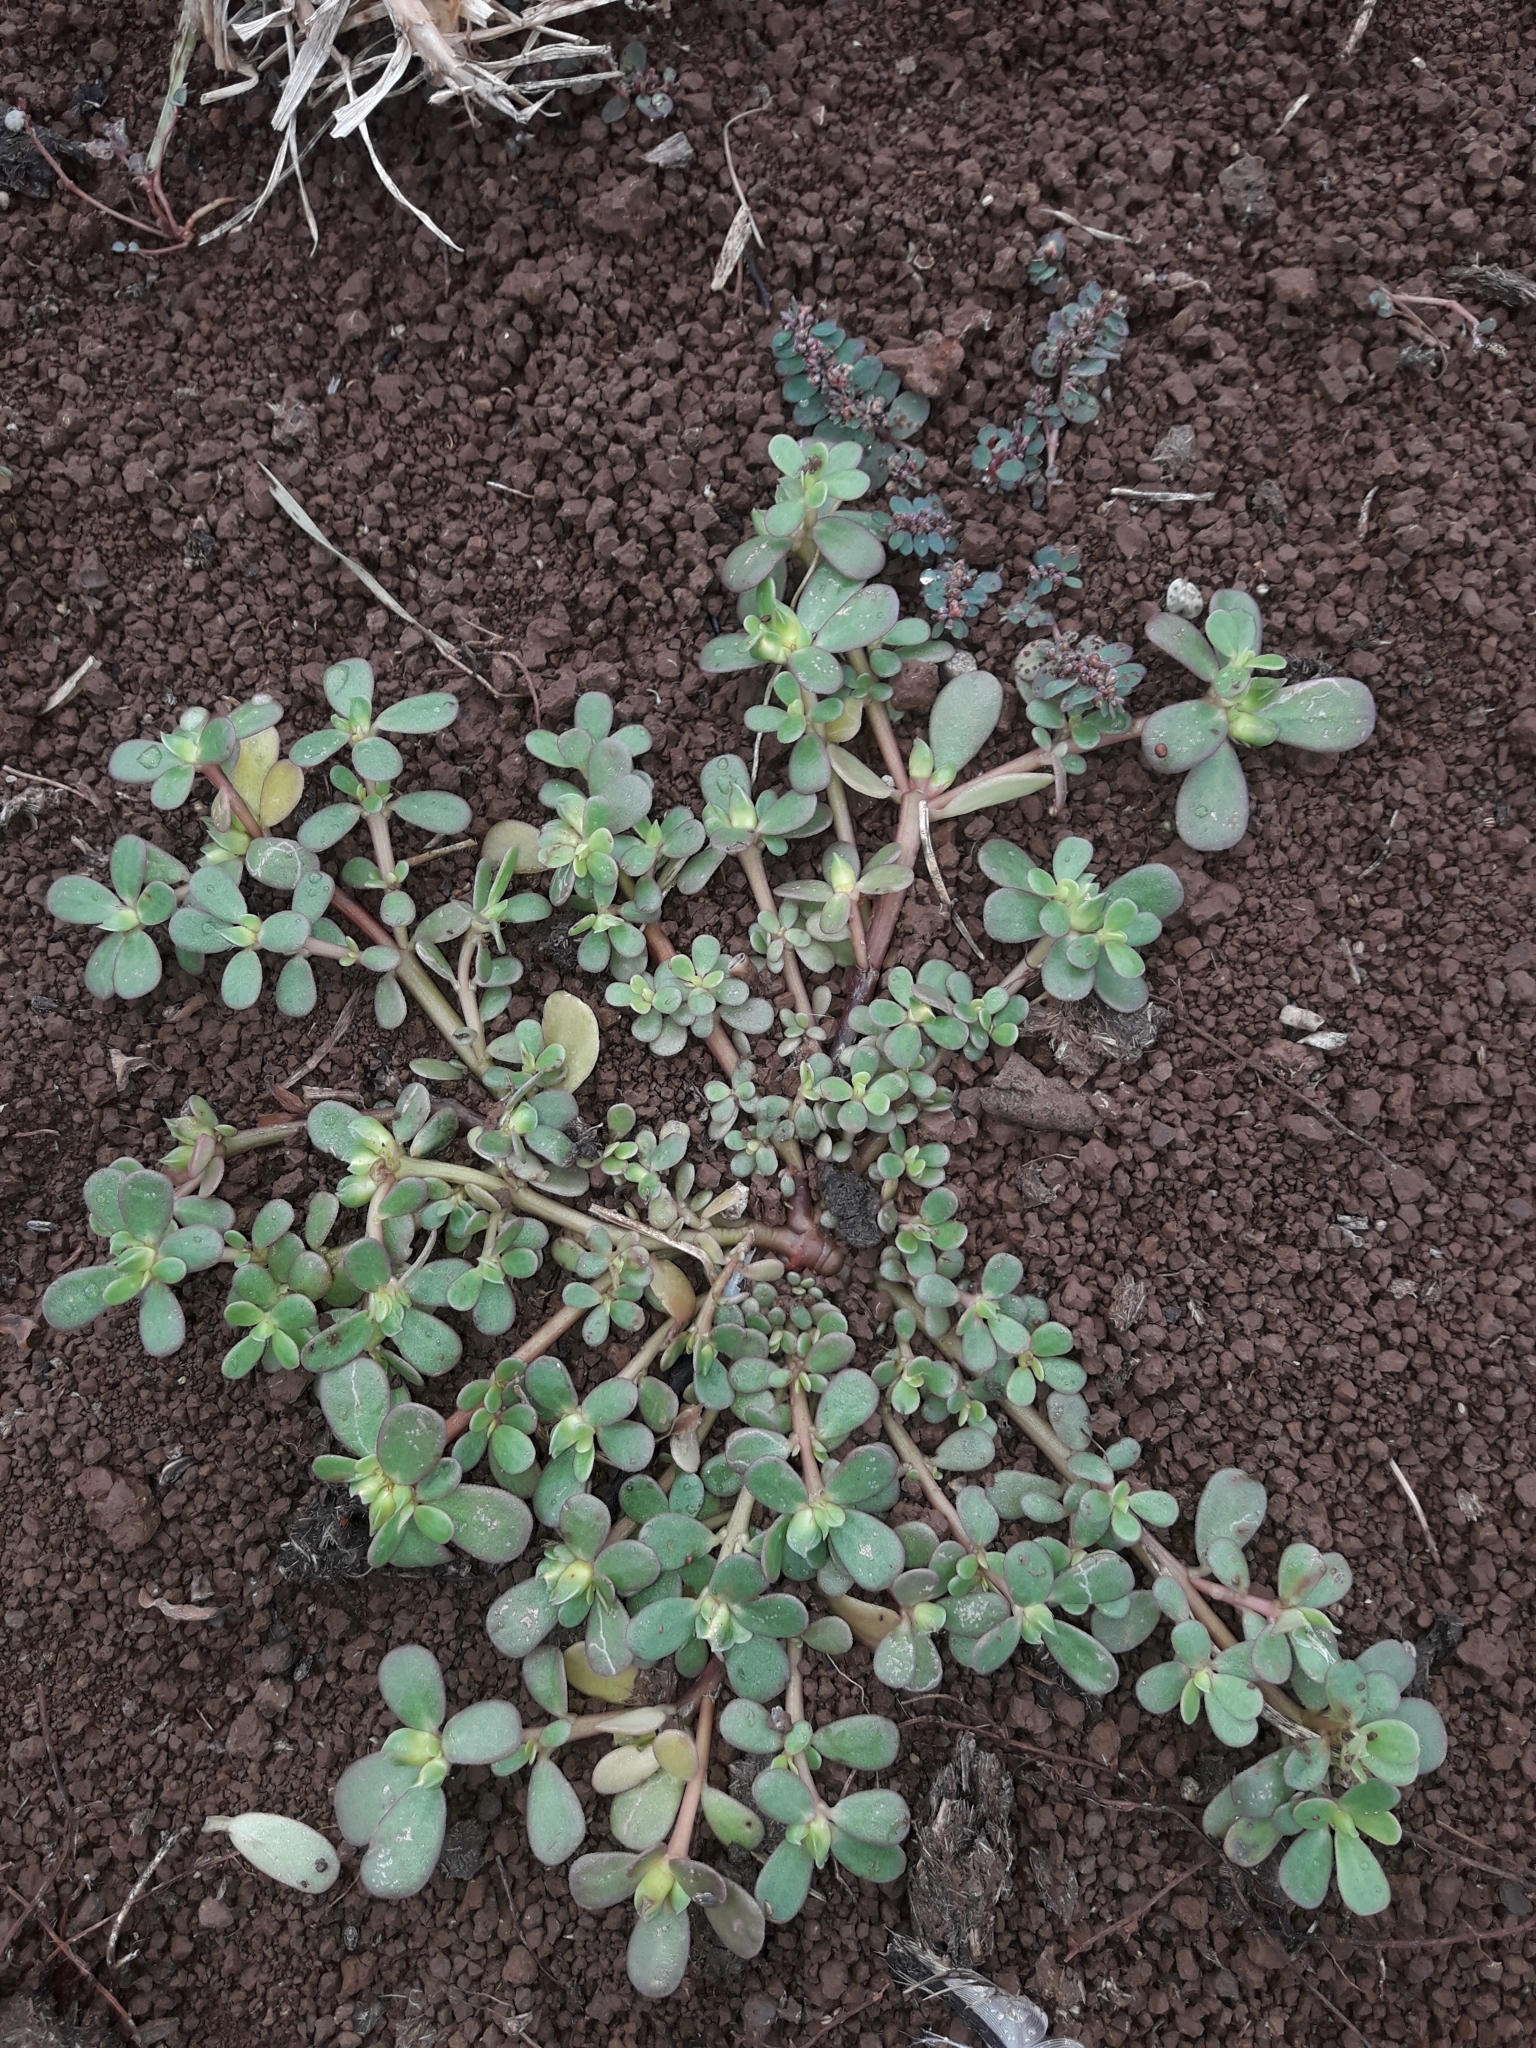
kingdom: Plantae
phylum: Tracheophyta
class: Magnoliopsida
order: Caryophyllales
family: Portulacaceae
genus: Portulaca
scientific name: Portulaca oleracea
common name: Common purslane
